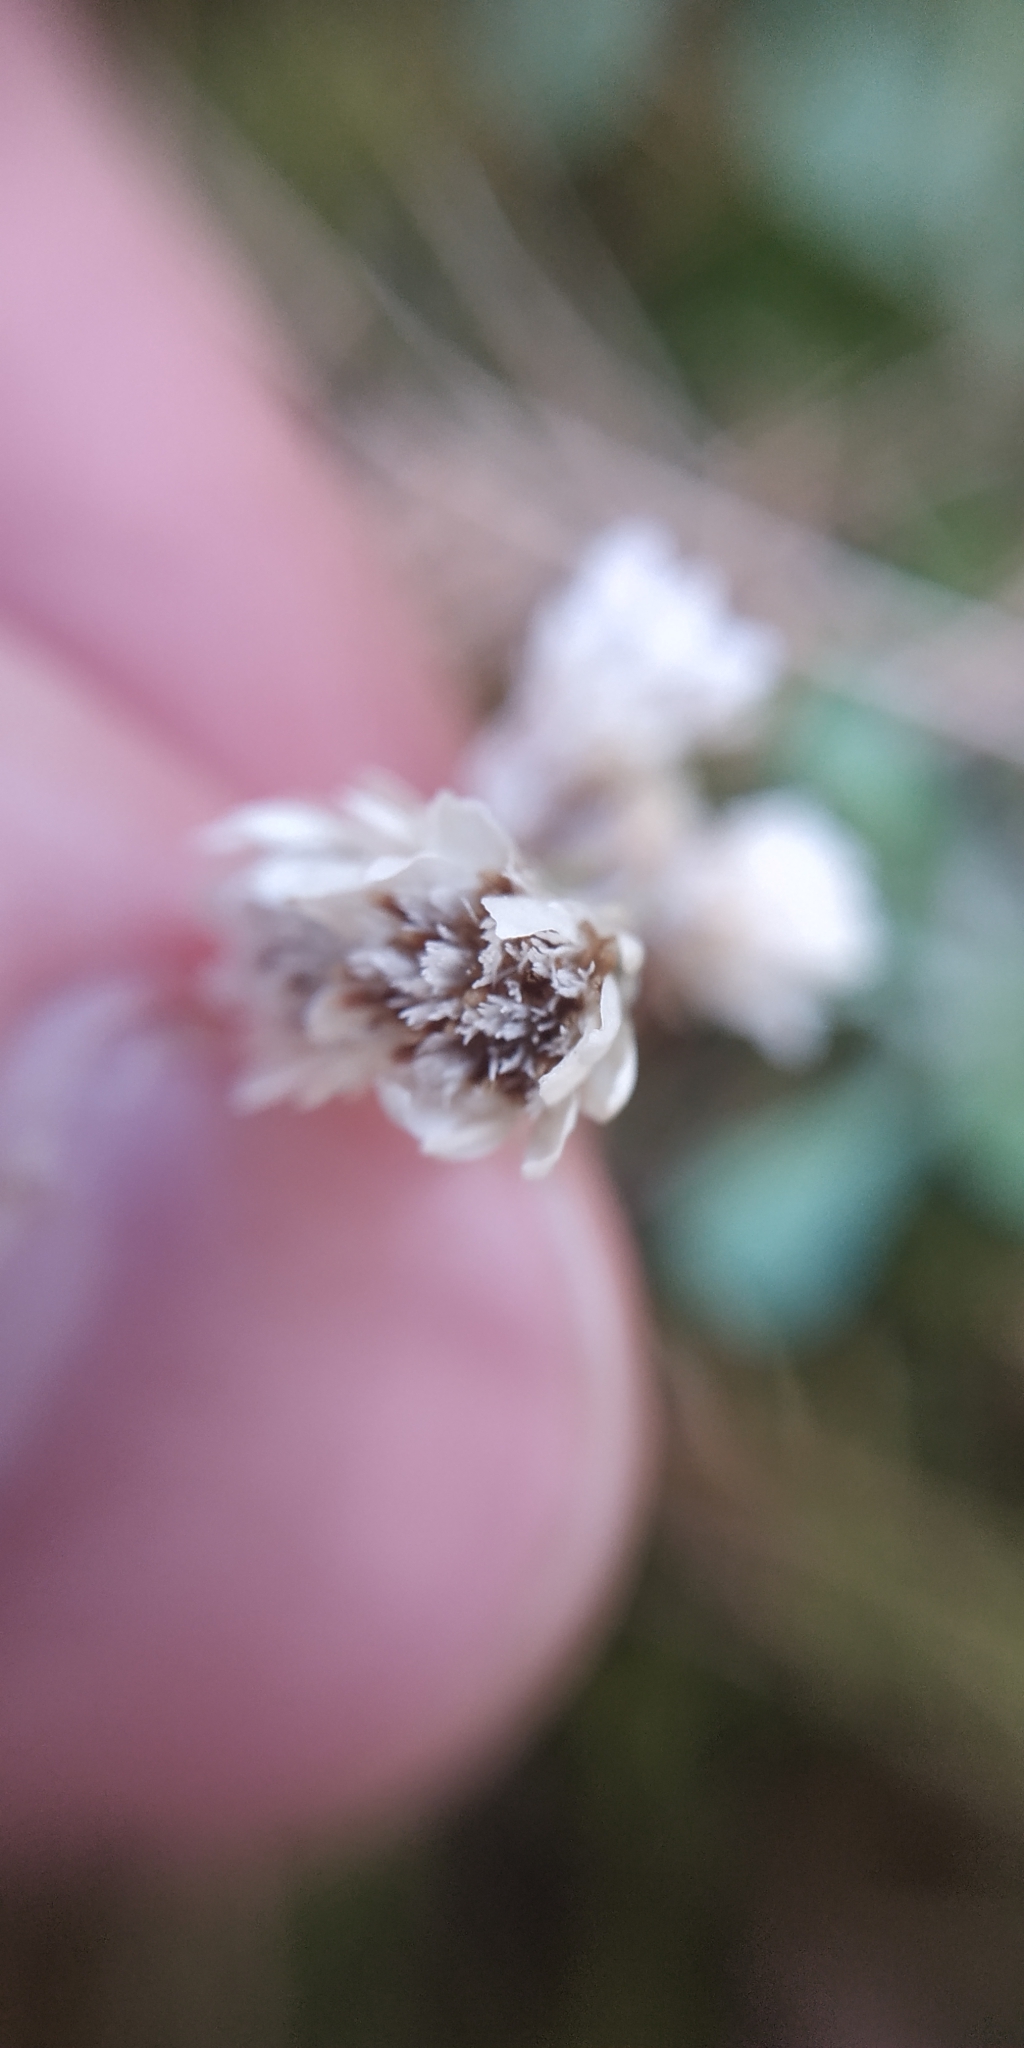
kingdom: Plantae
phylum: Tracheophyta
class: Magnoliopsida
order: Asterales
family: Asteraceae
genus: Antennaria
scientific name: Antennaria dioica
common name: Mountain everlasting
